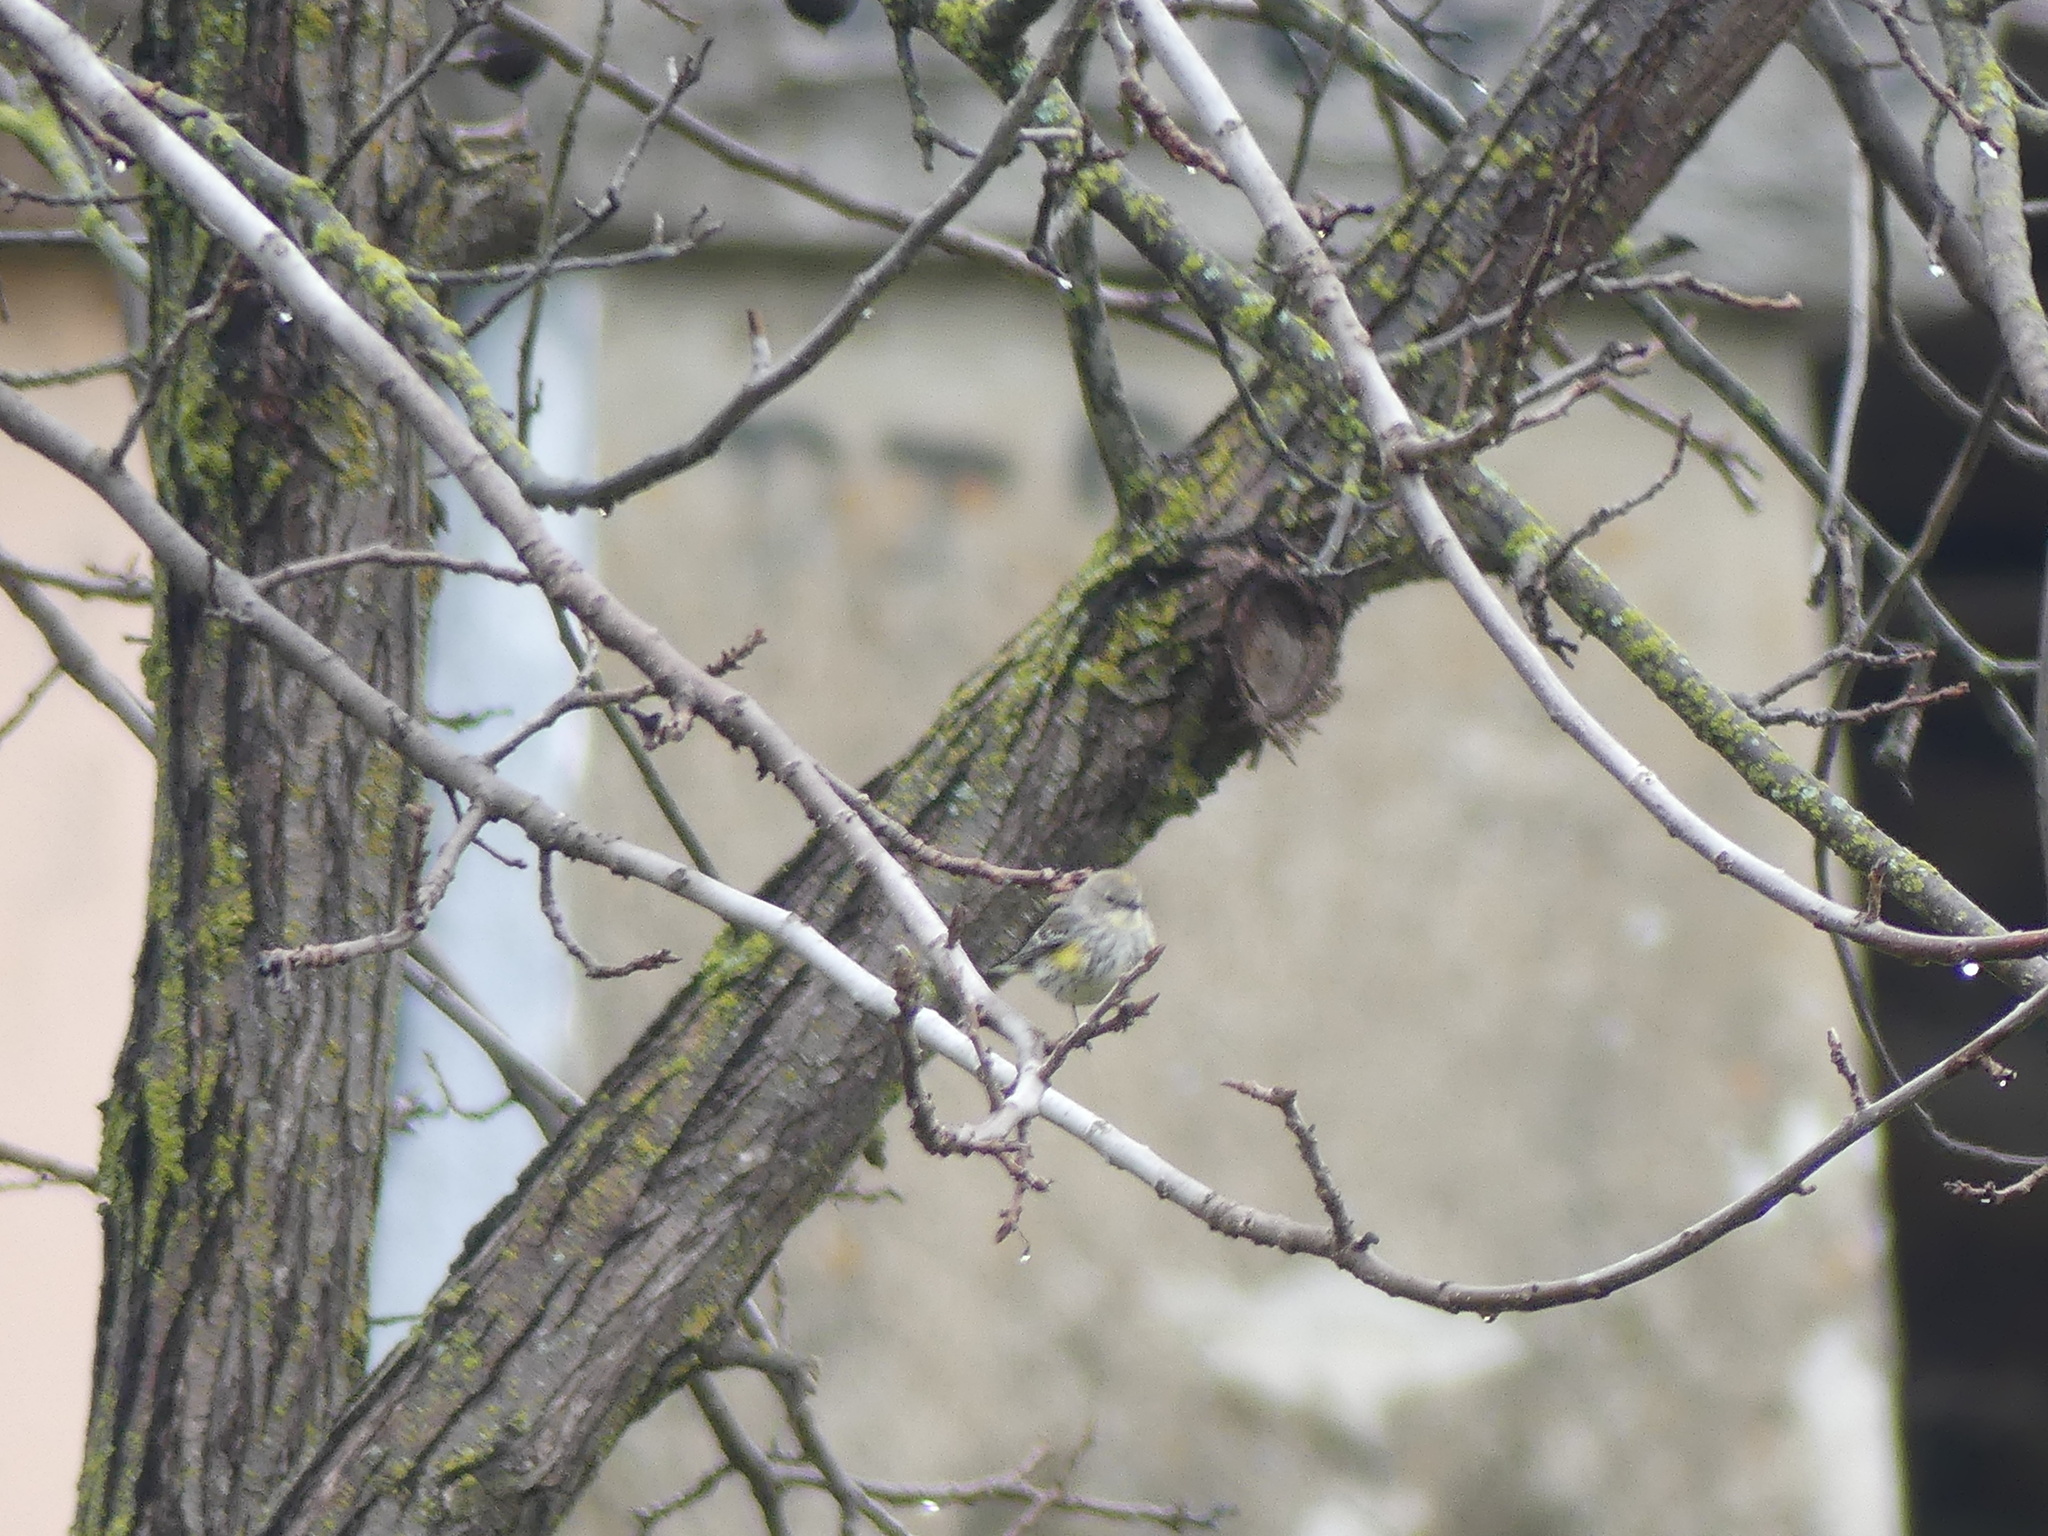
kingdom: Animalia
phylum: Chordata
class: Aves
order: Passeriformes
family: Parulidae
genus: Setophaga
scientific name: Setophaga coronata
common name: Myrtle warbler
